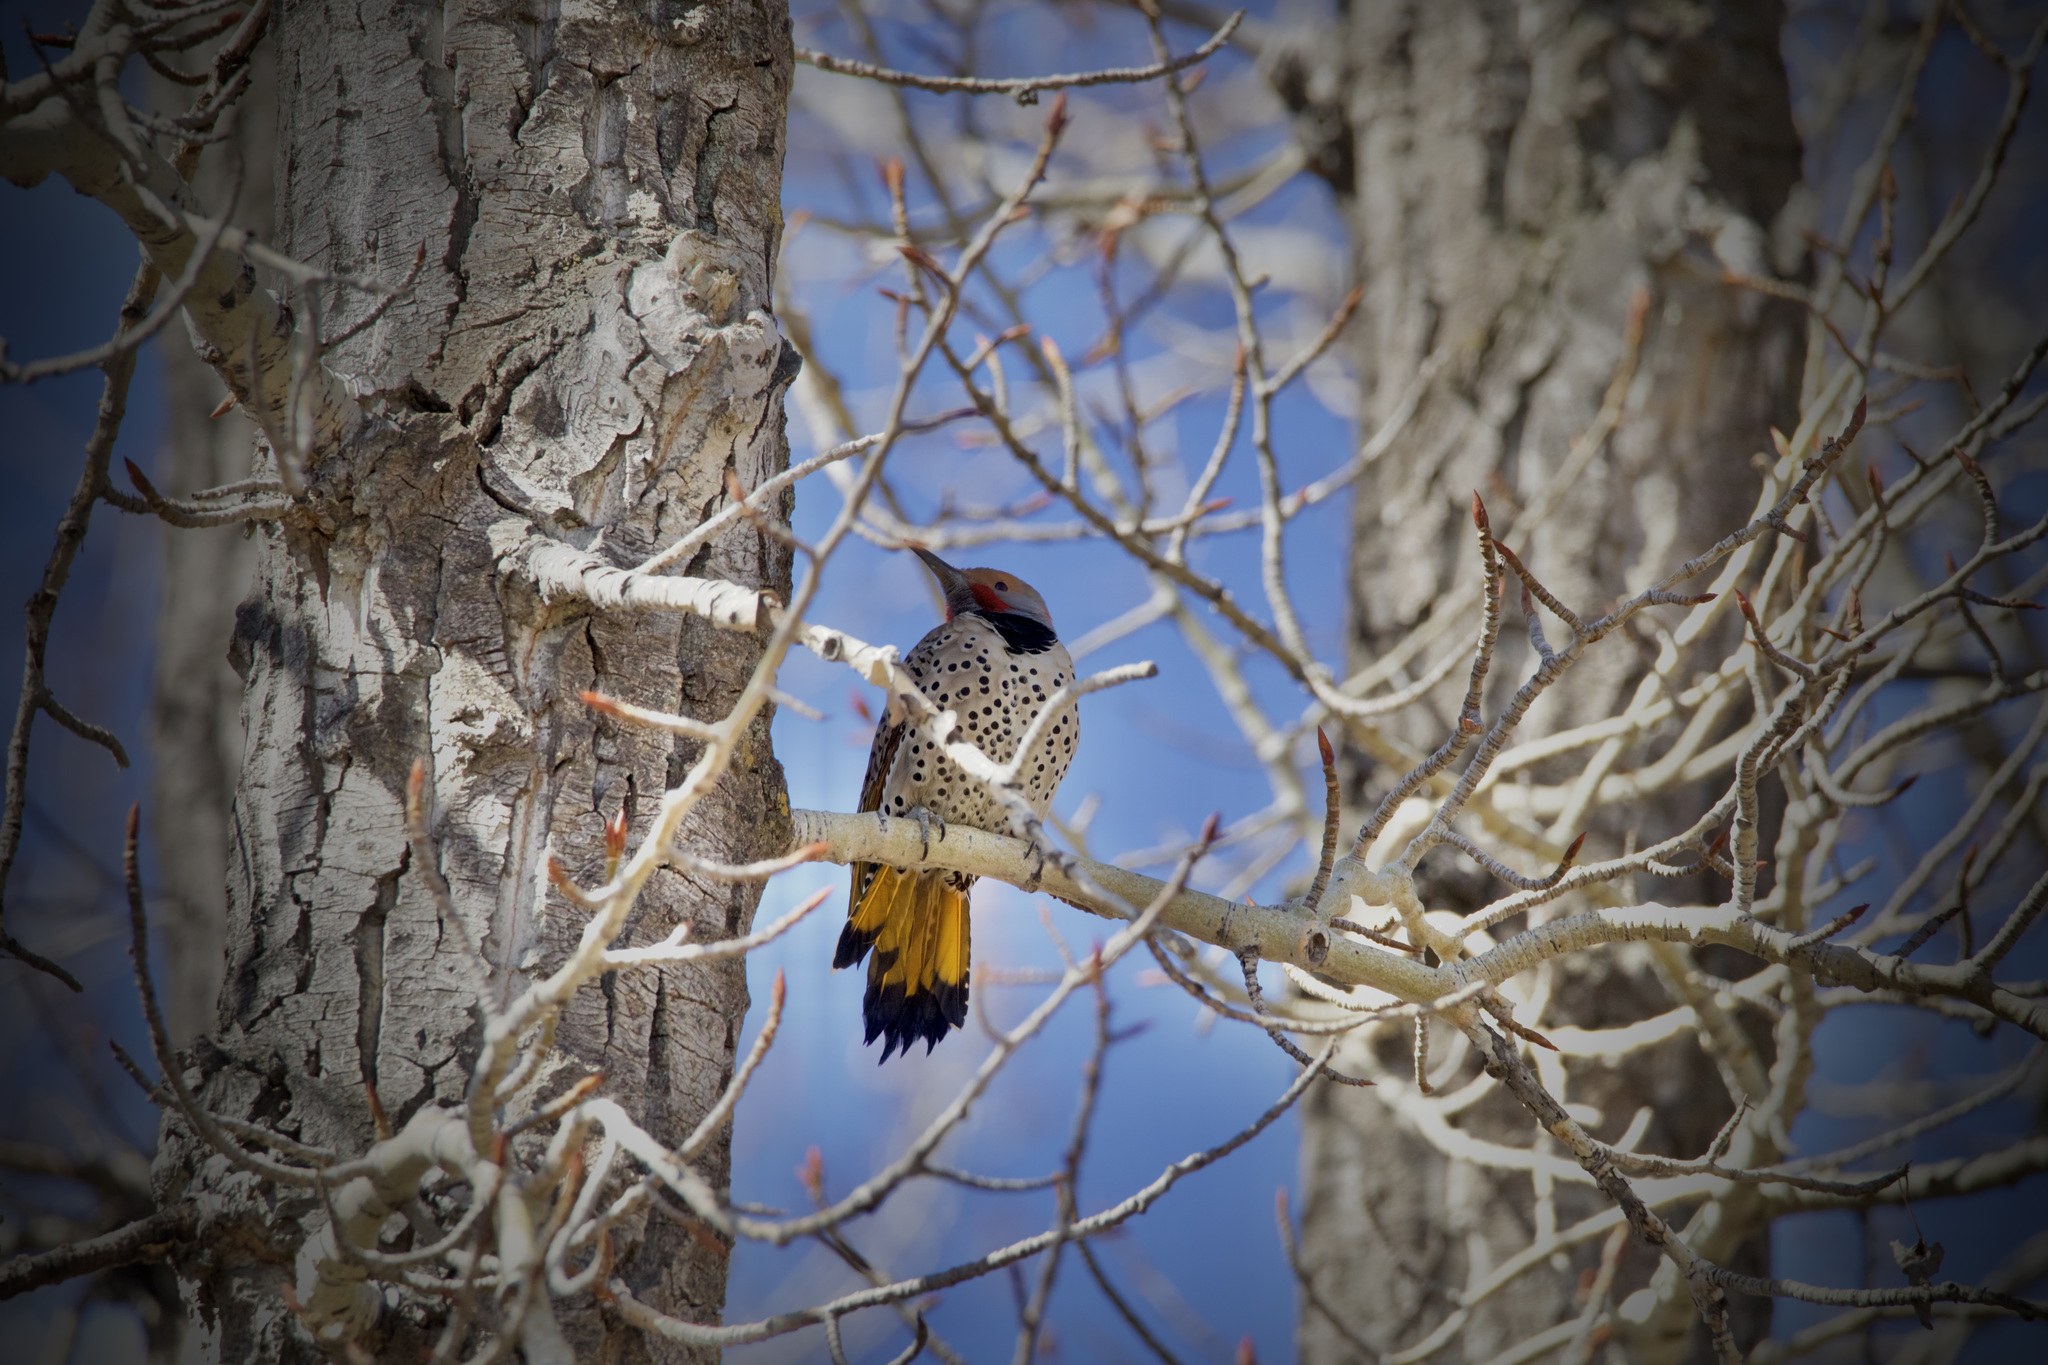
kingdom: Animalia
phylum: Chordata
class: Aves
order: Piciformes
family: Picidae
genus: Colaptes
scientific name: Colaptes
